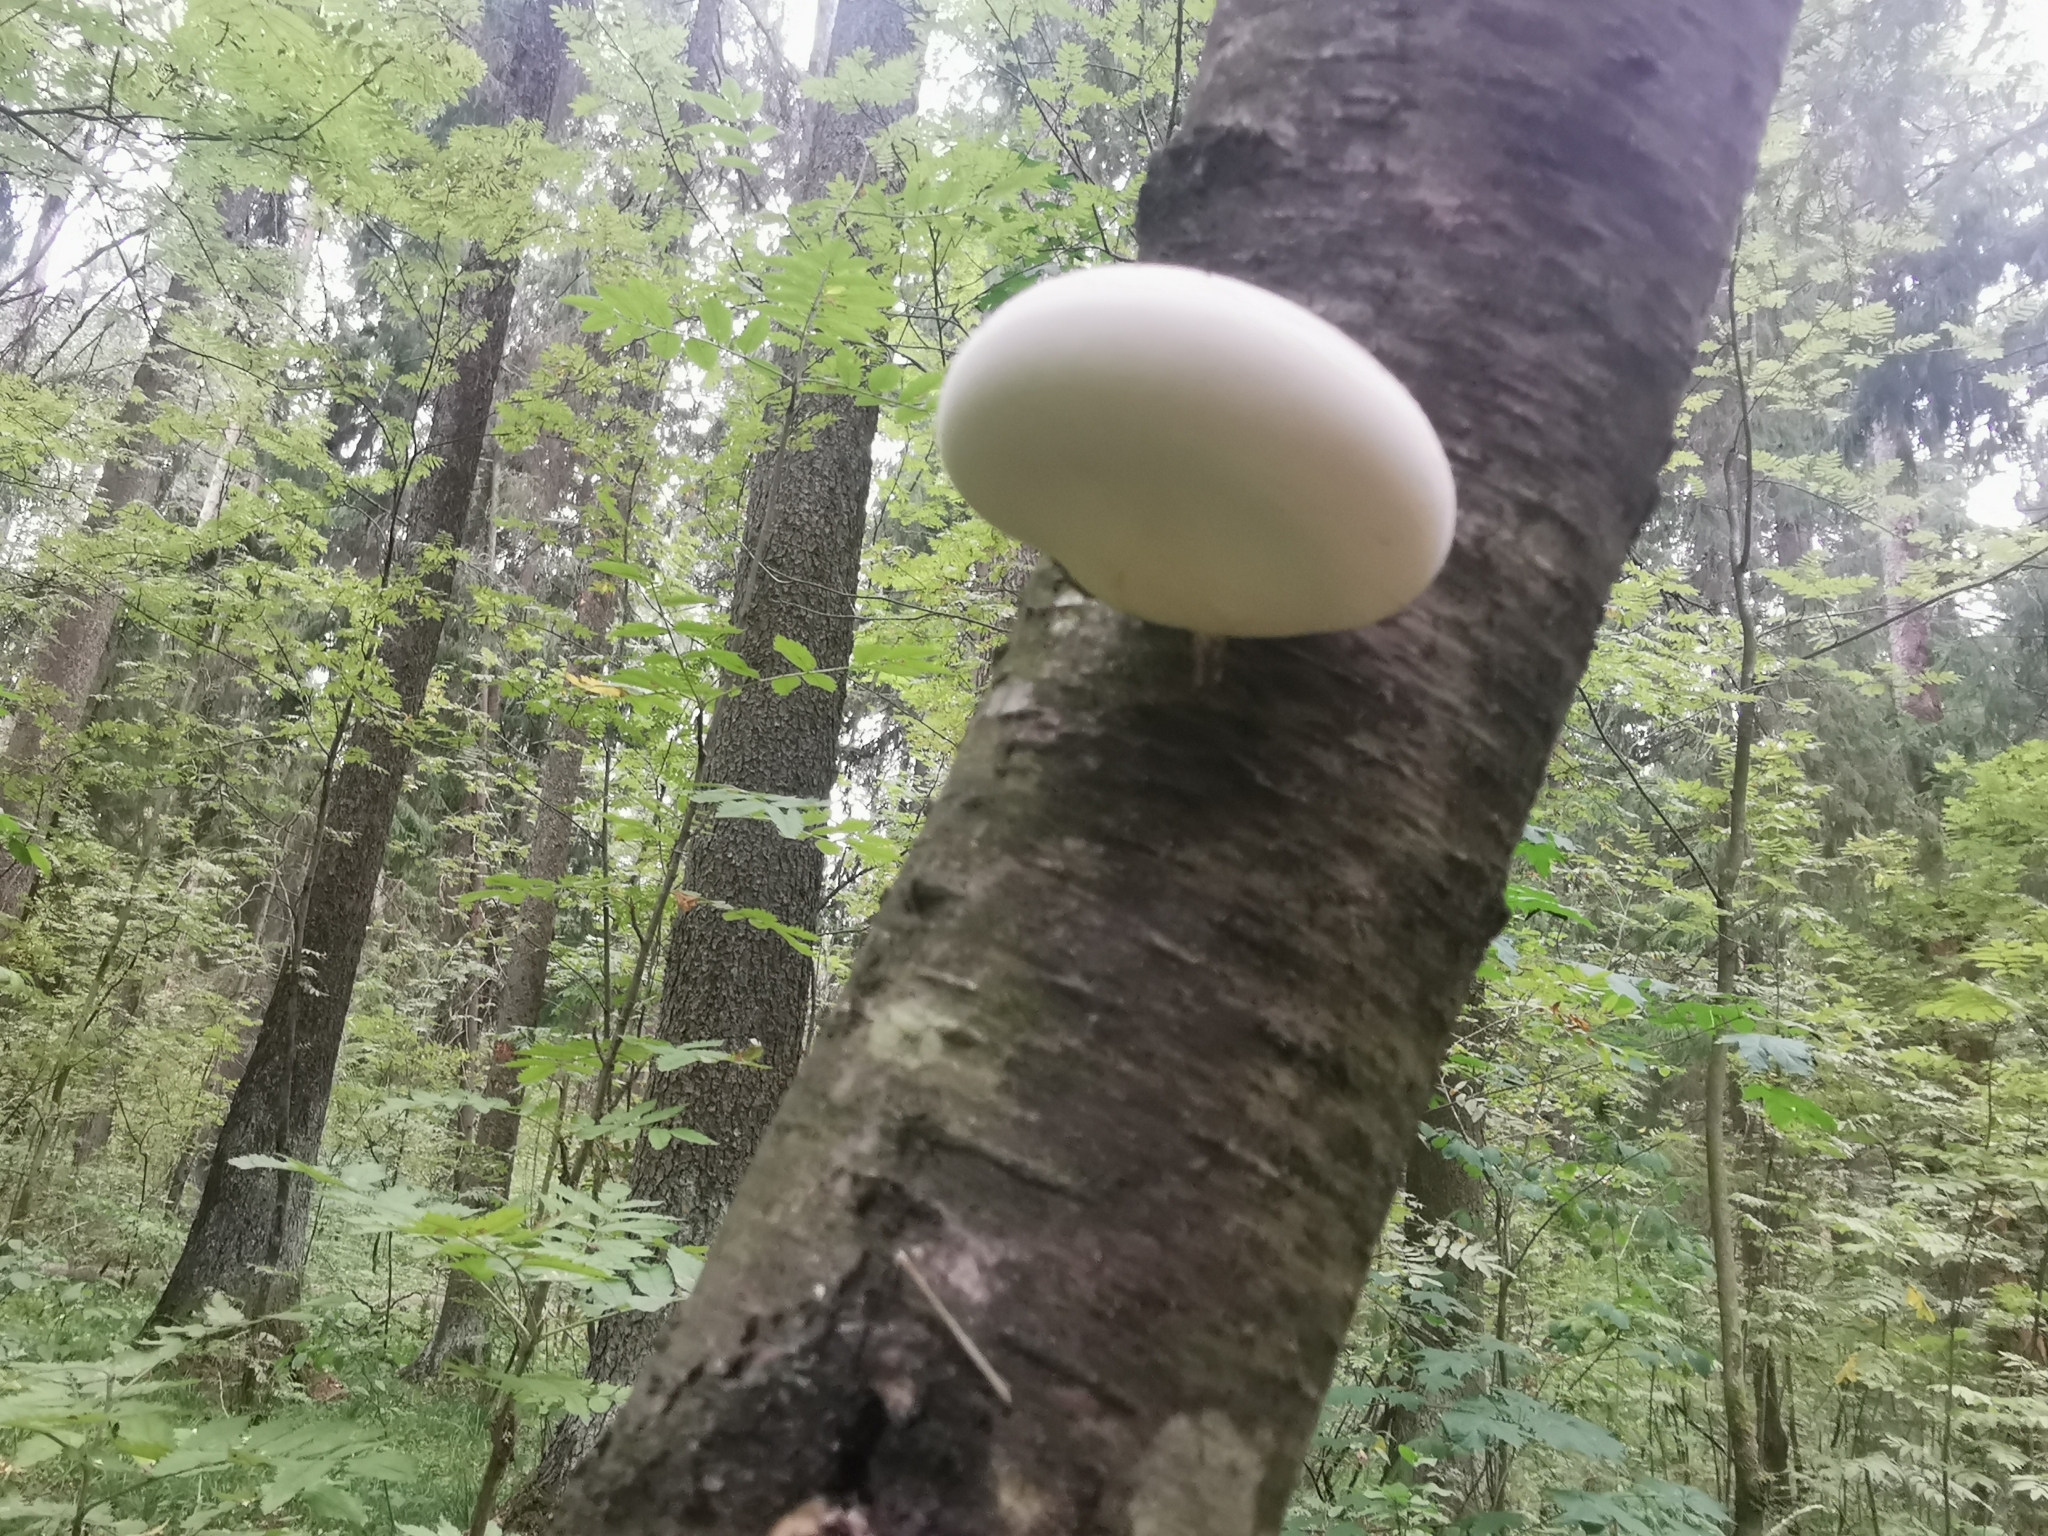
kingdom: Fungi
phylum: Basidiomycota
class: Agaricomycetes
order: Polyporales
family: Fomitopsidaceae
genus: Fomitopsis
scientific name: Fomitopsis betulina
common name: Birch polypore
